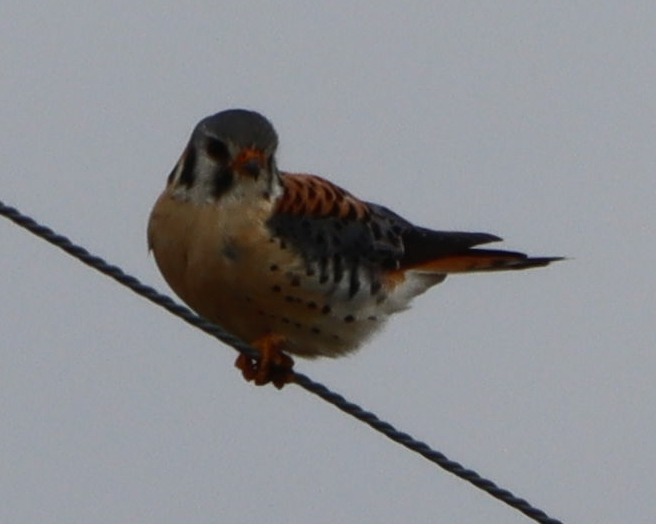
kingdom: Animalia
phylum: Chordata
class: Aves
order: Falconiformes
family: Falconidae
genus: Falco
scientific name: Falco sparverius
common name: American kestrel
